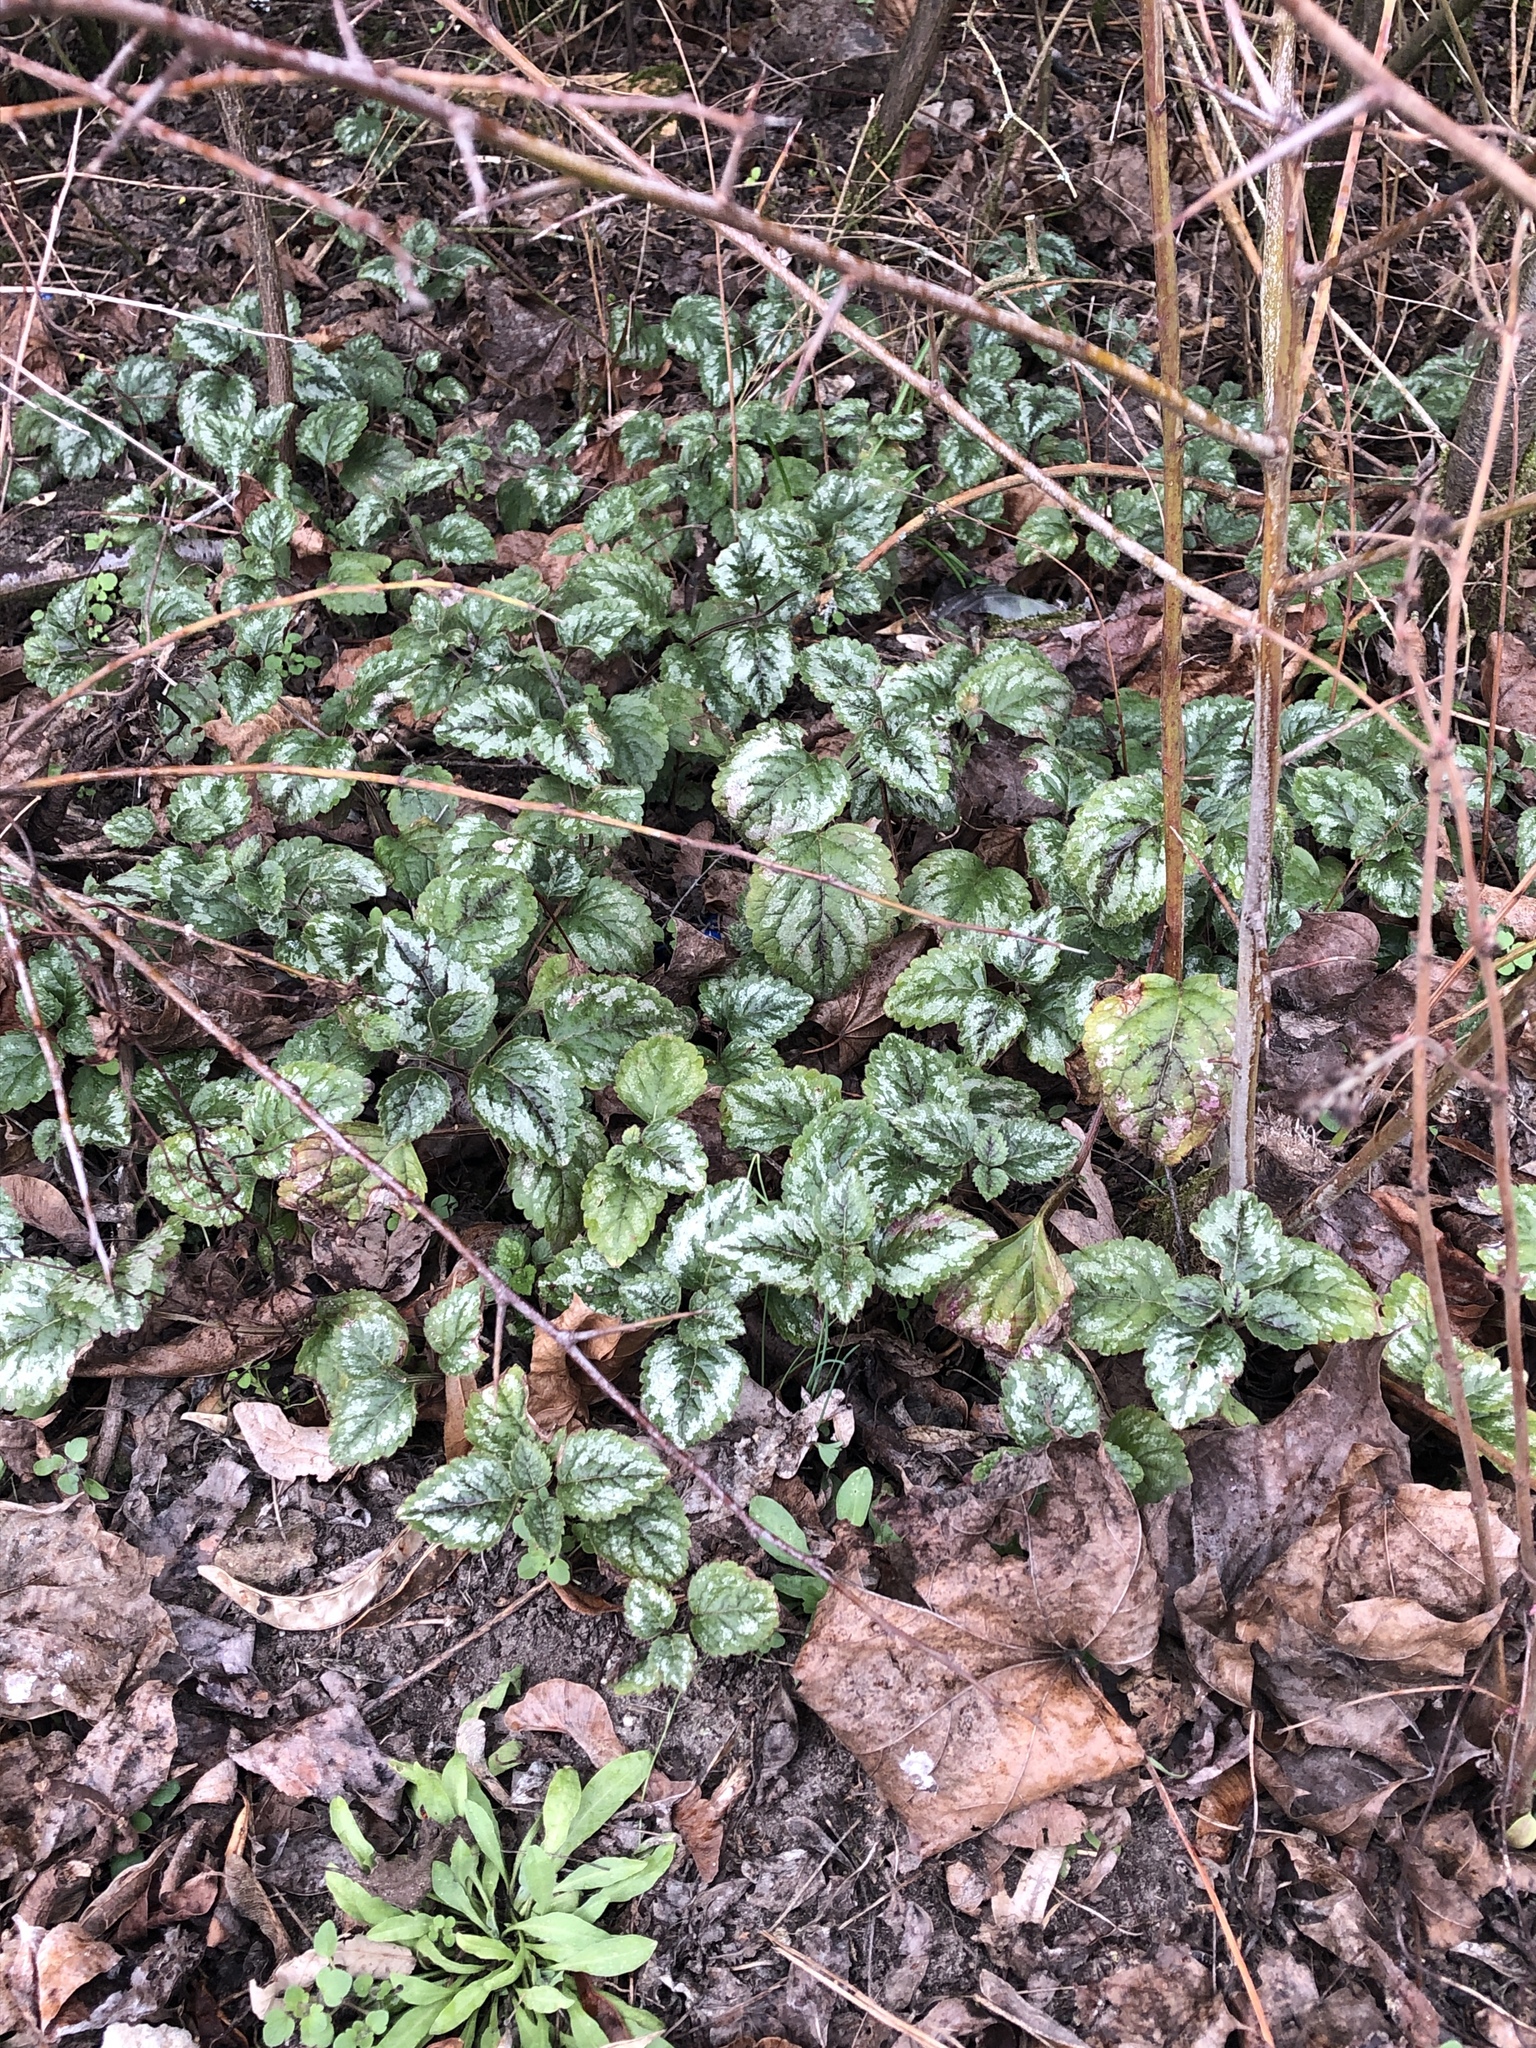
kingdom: Plantae
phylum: Tracheophyta
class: Magnoliopsida
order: Lamiales
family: Lamiaceae
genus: Lamium
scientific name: Lamium galeobdolon
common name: Yellow archangel
